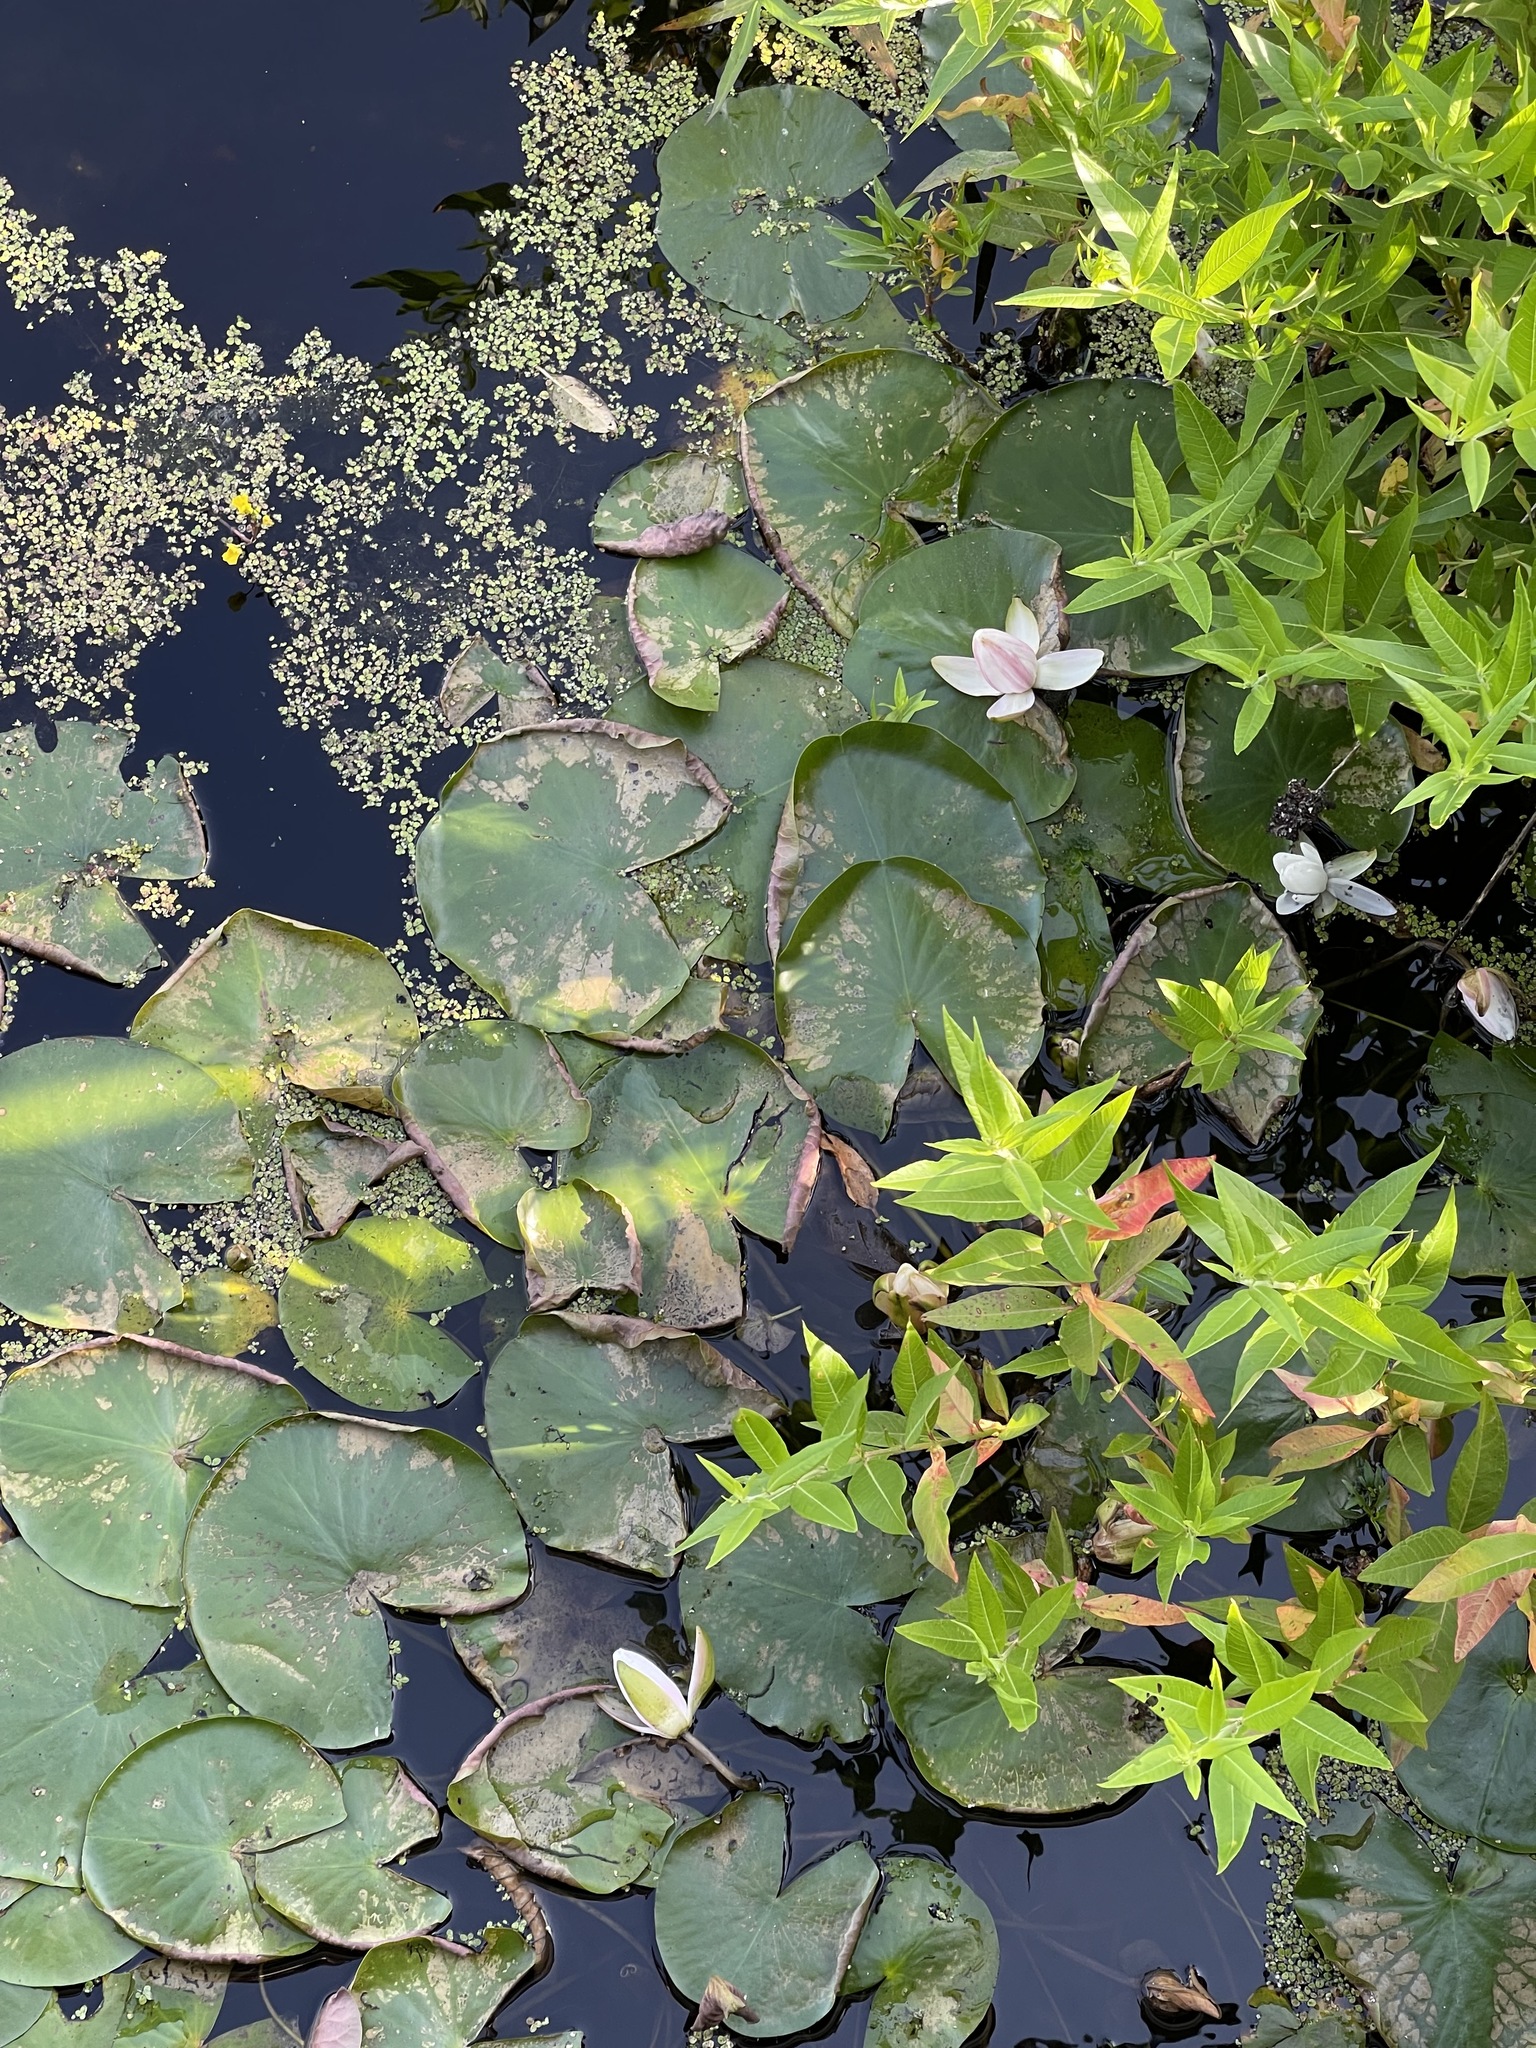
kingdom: Plantae
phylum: Tracheophyta
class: Magnoliopsida
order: Nymphaeales
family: Nymphaeaceae
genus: Nymphaea
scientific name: Nymphaea odorata
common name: Fragrant water-lily
